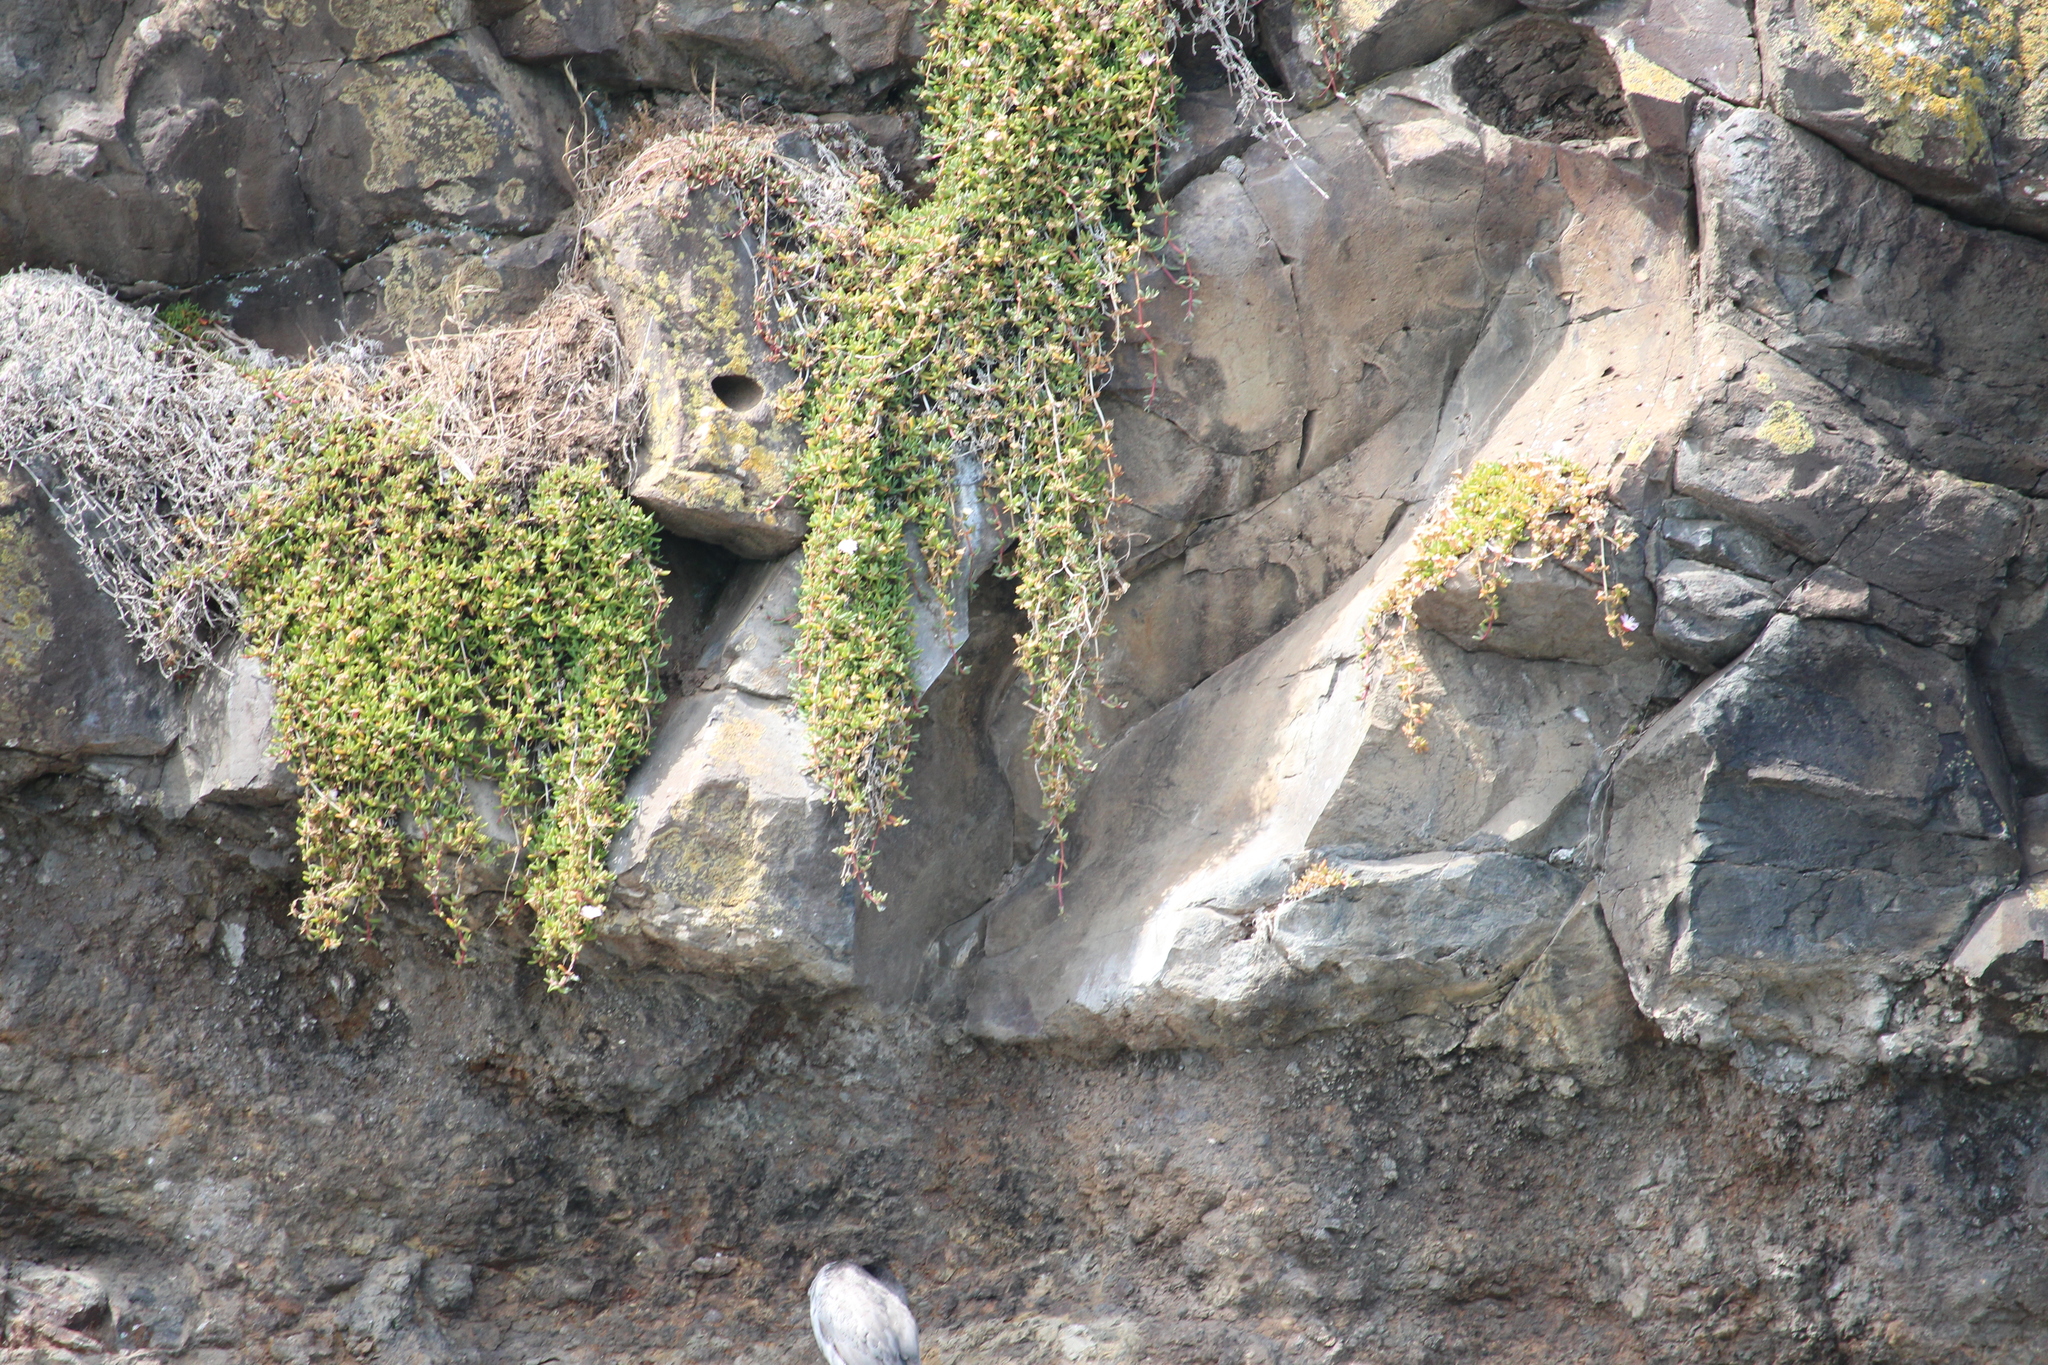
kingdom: Plantae
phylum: Tracheophyta
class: Magnoliopsida
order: Caryophyllales
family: Aizoaceae
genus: Disphyma
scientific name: Disphyma australe
